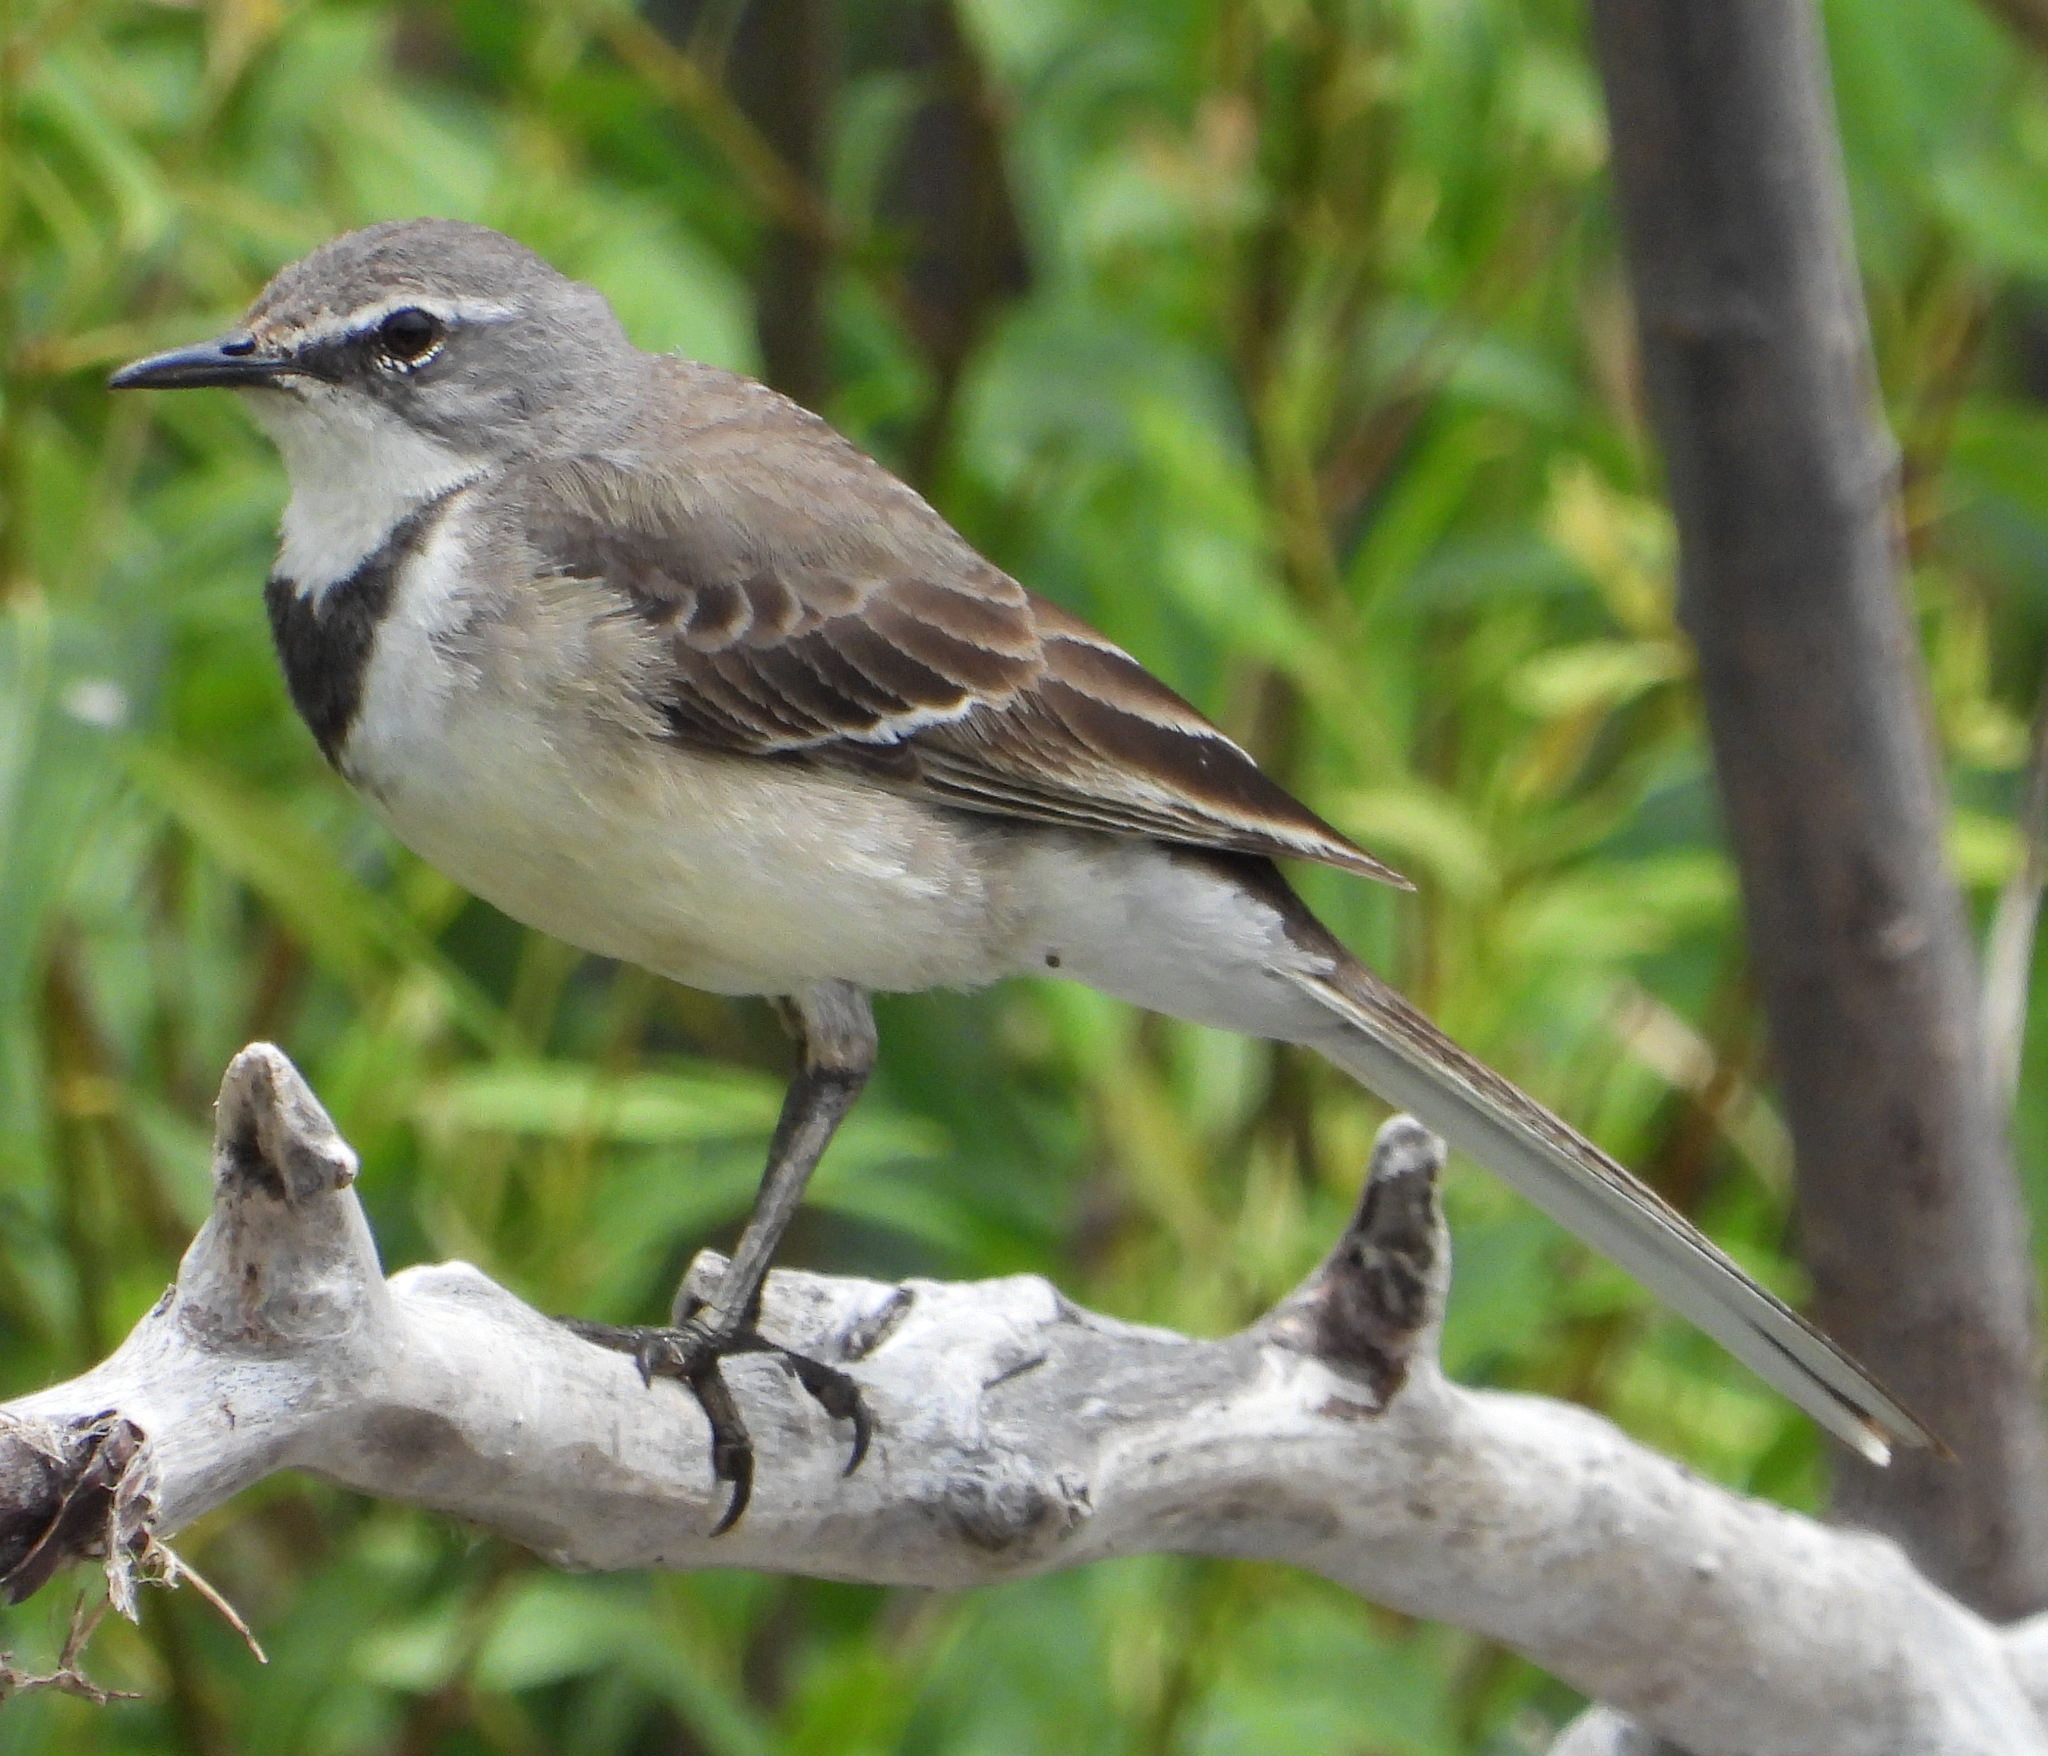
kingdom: Animalia
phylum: Chordata
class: Aves
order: Passeriformes
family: Motacillidae
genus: Motacilla
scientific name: Motacilla capensis
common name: Cape wagtail
